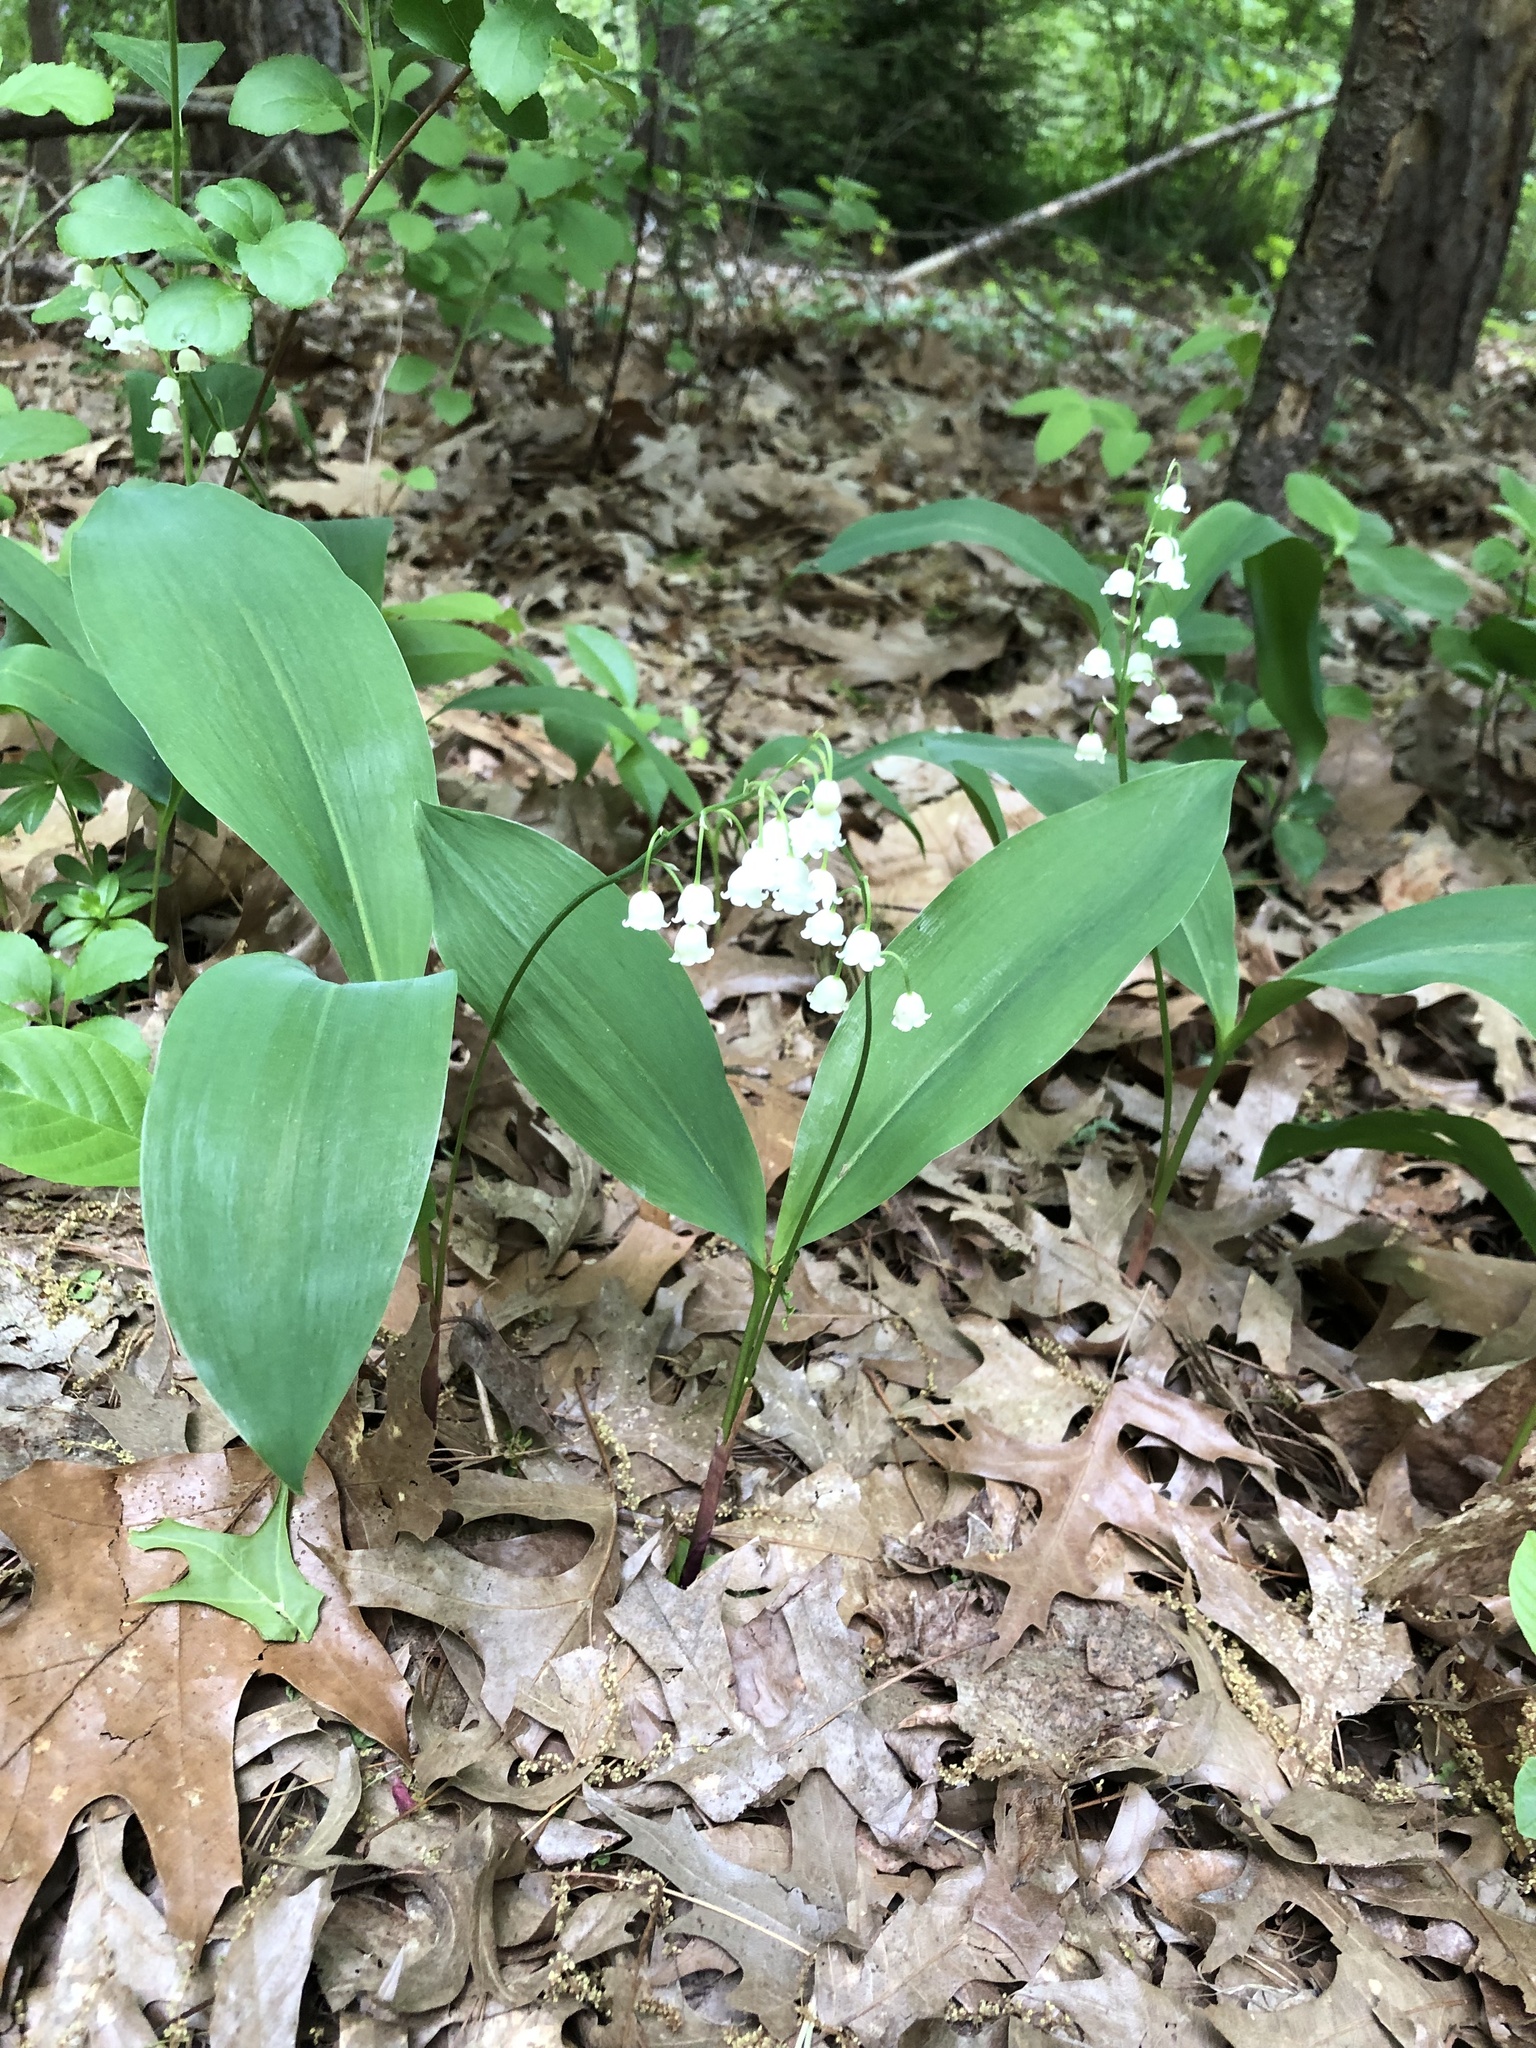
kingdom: Plantae
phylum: Tracheophyta
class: Liliopsida
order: Asparagales
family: Asparagaceae
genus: Convallaria
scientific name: Convallaria majalis
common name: Lily-of-the-valley
